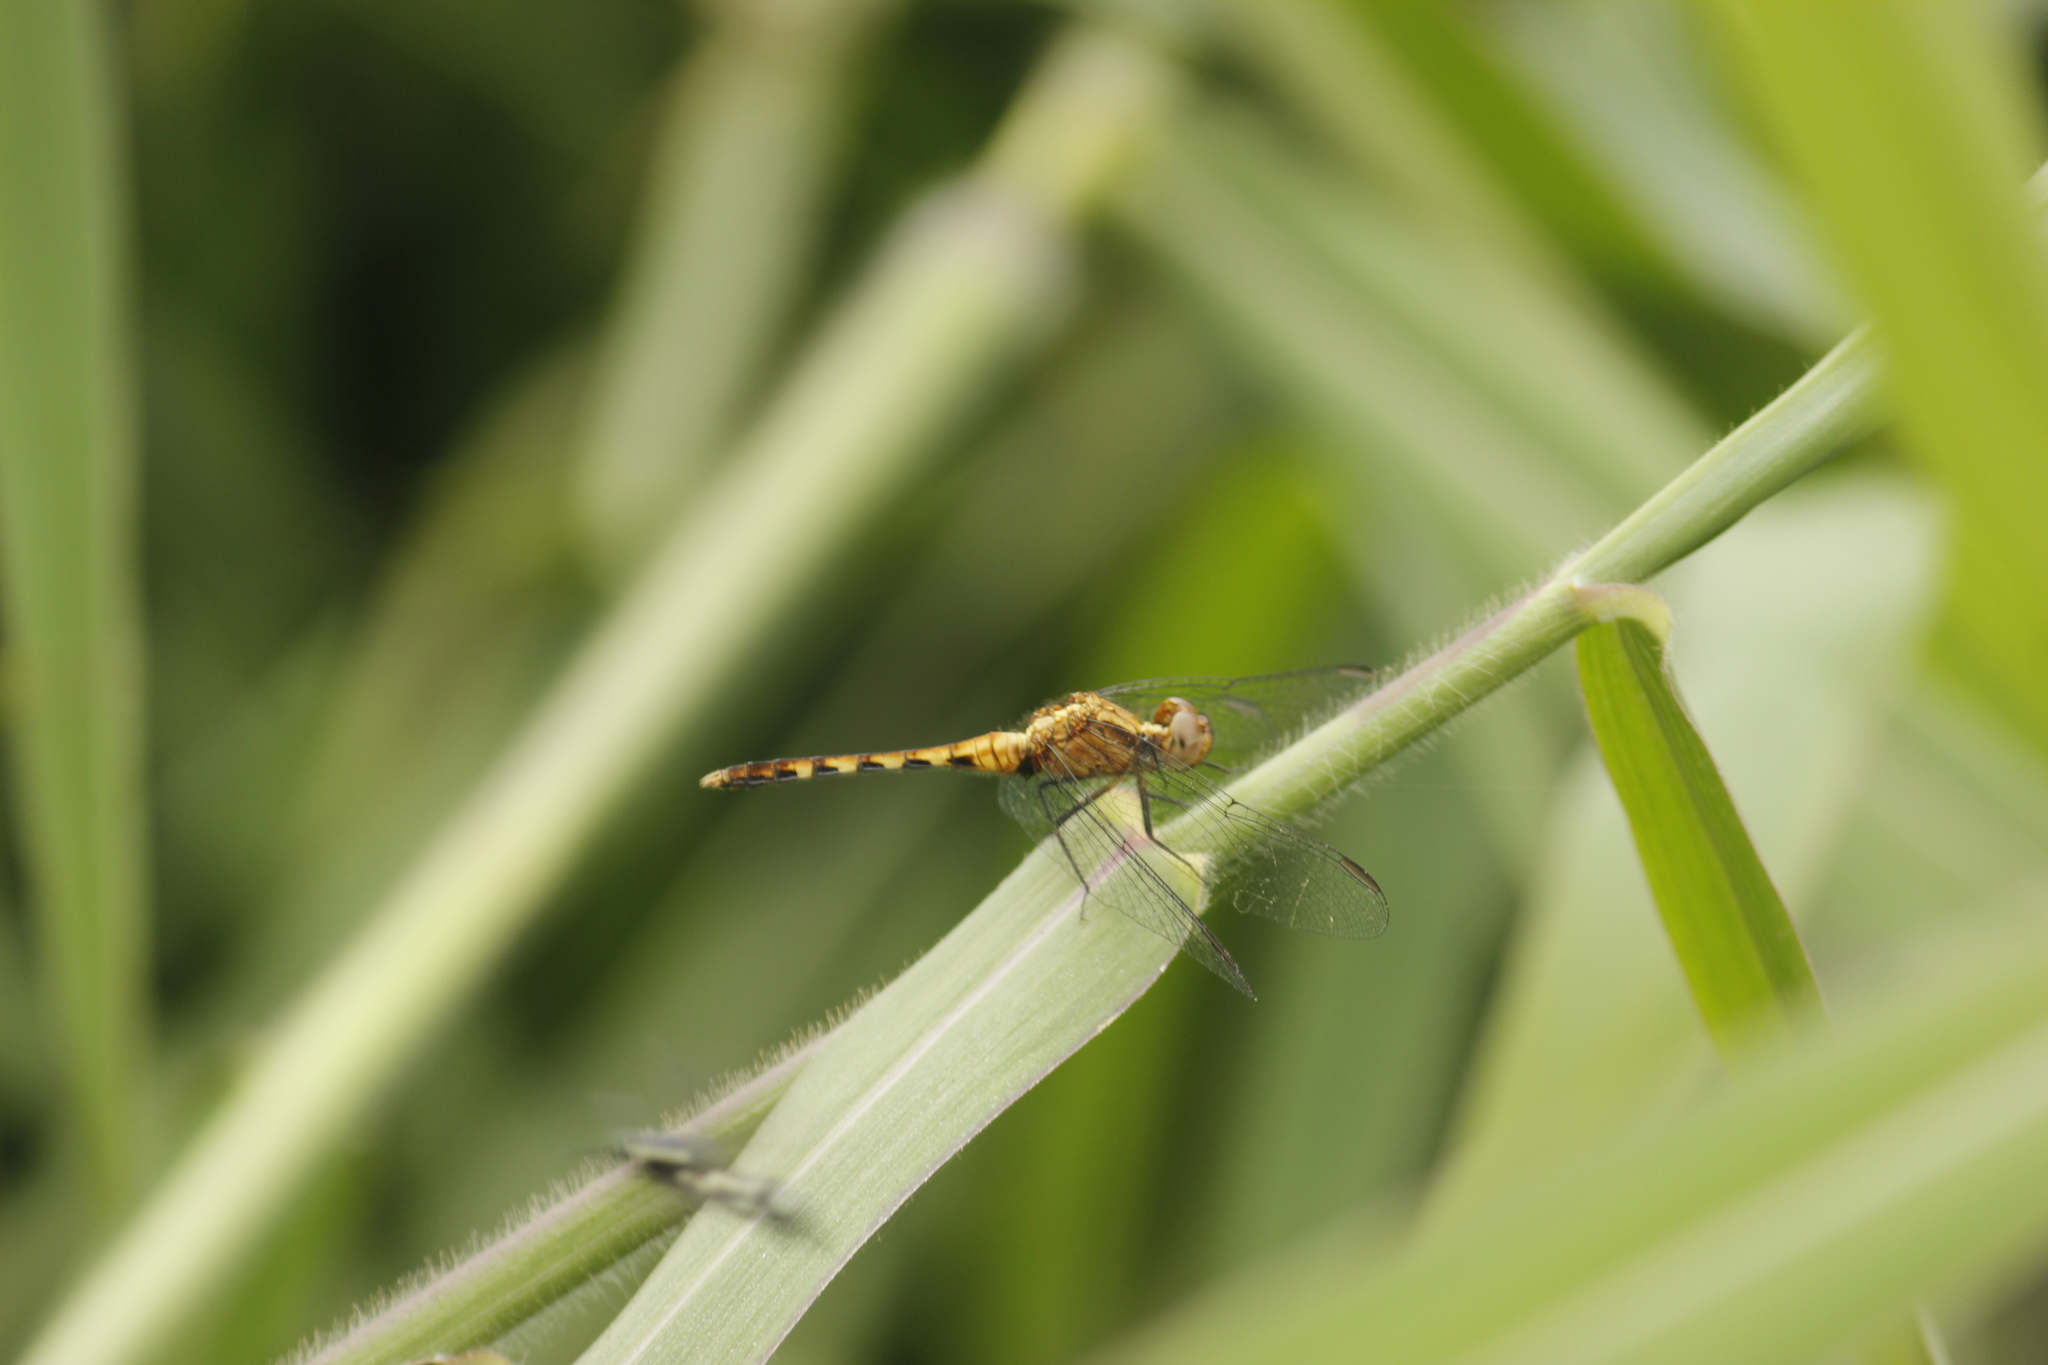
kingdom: Animalia
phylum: Arthropoda
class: Insecta
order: Odonata
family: Libellulidae
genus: Erythrodiplax
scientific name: Erythrodiplax cleopatra
